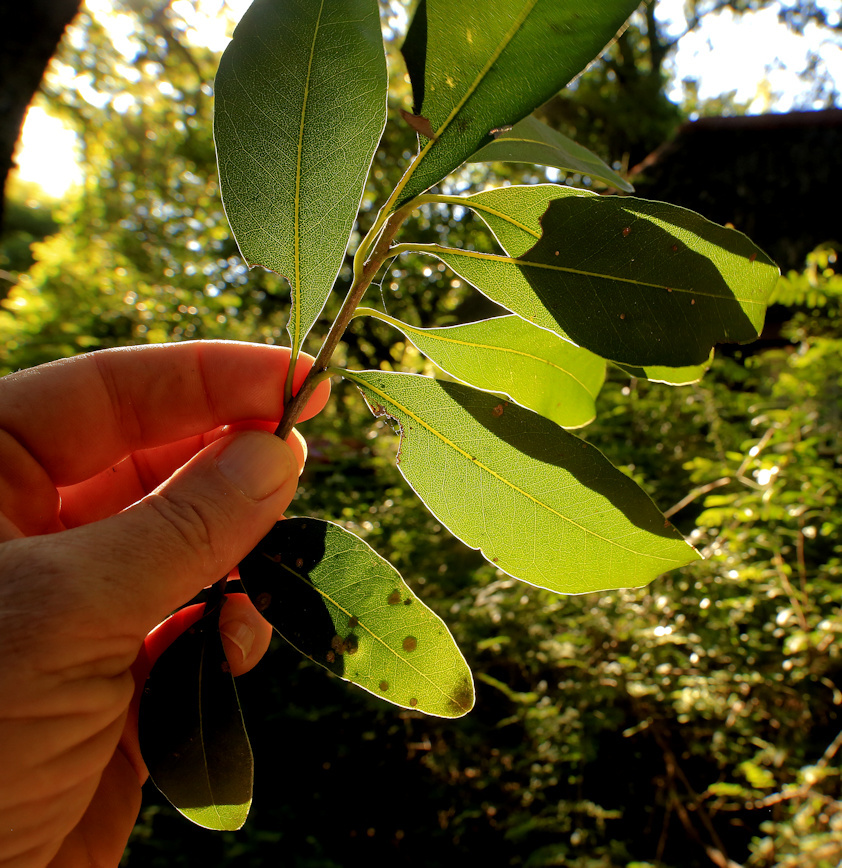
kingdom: Plantae
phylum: Tracheophyta
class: Magnoliopsida
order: Ericales
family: Sapotaceae
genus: Sideroxylon
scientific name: Sideroxylon inerme
